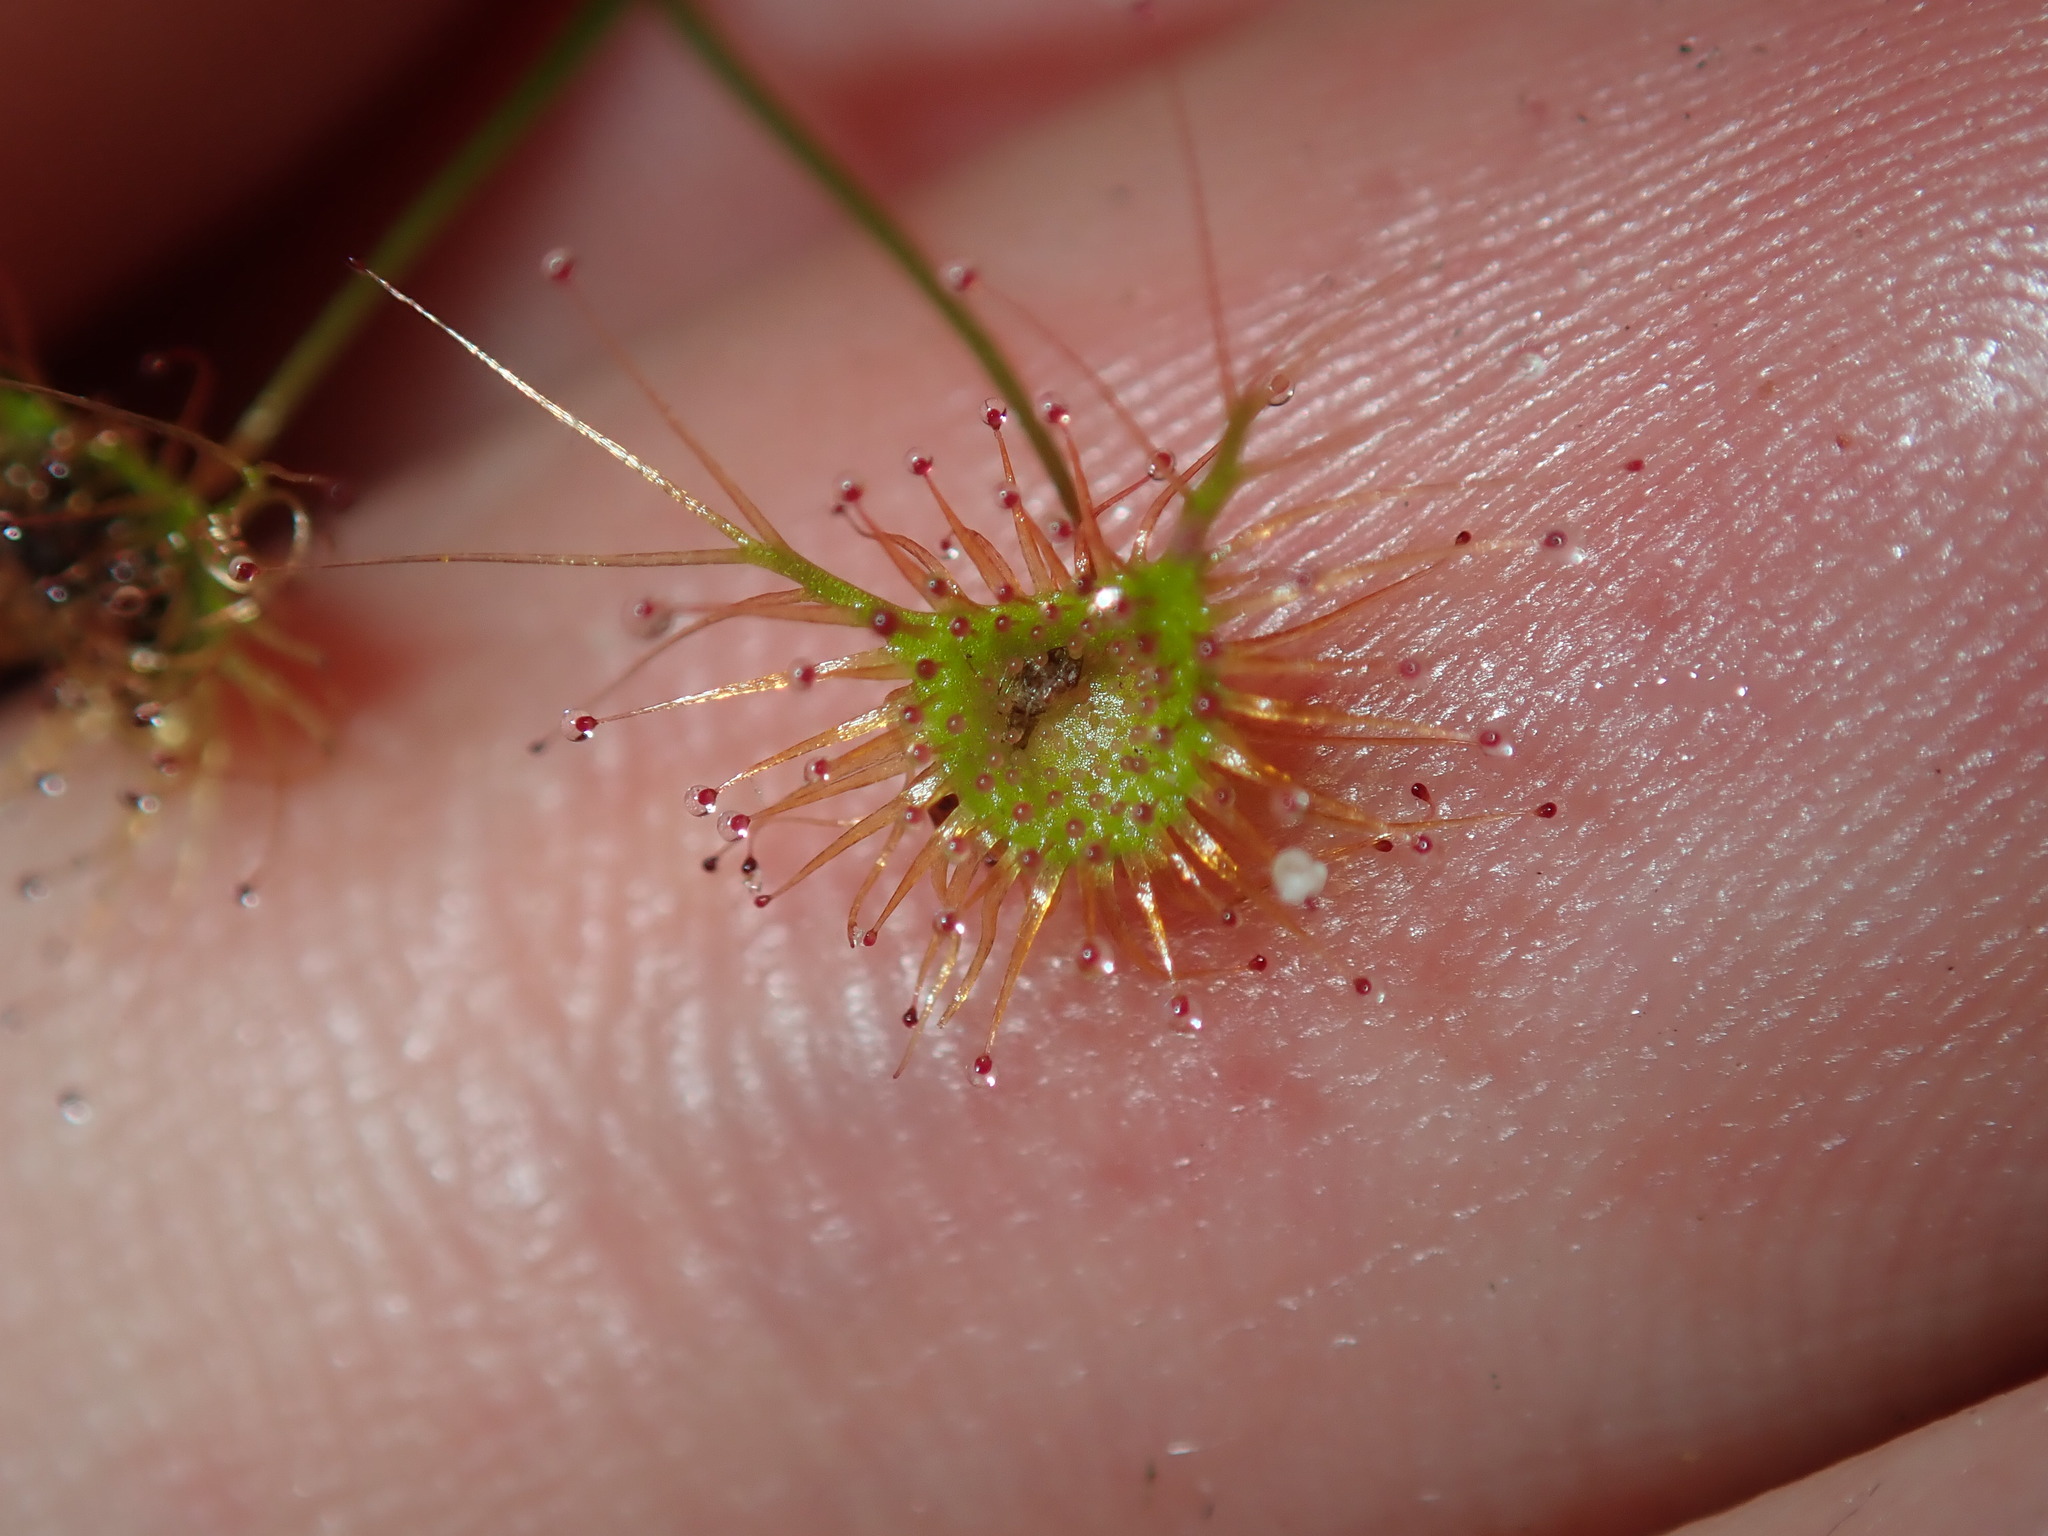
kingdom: Plantae
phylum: Tracheophyta
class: Magnoliopsida
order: Caryophyllales
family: Droseraceae
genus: Drosera
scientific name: Drosera peltata
